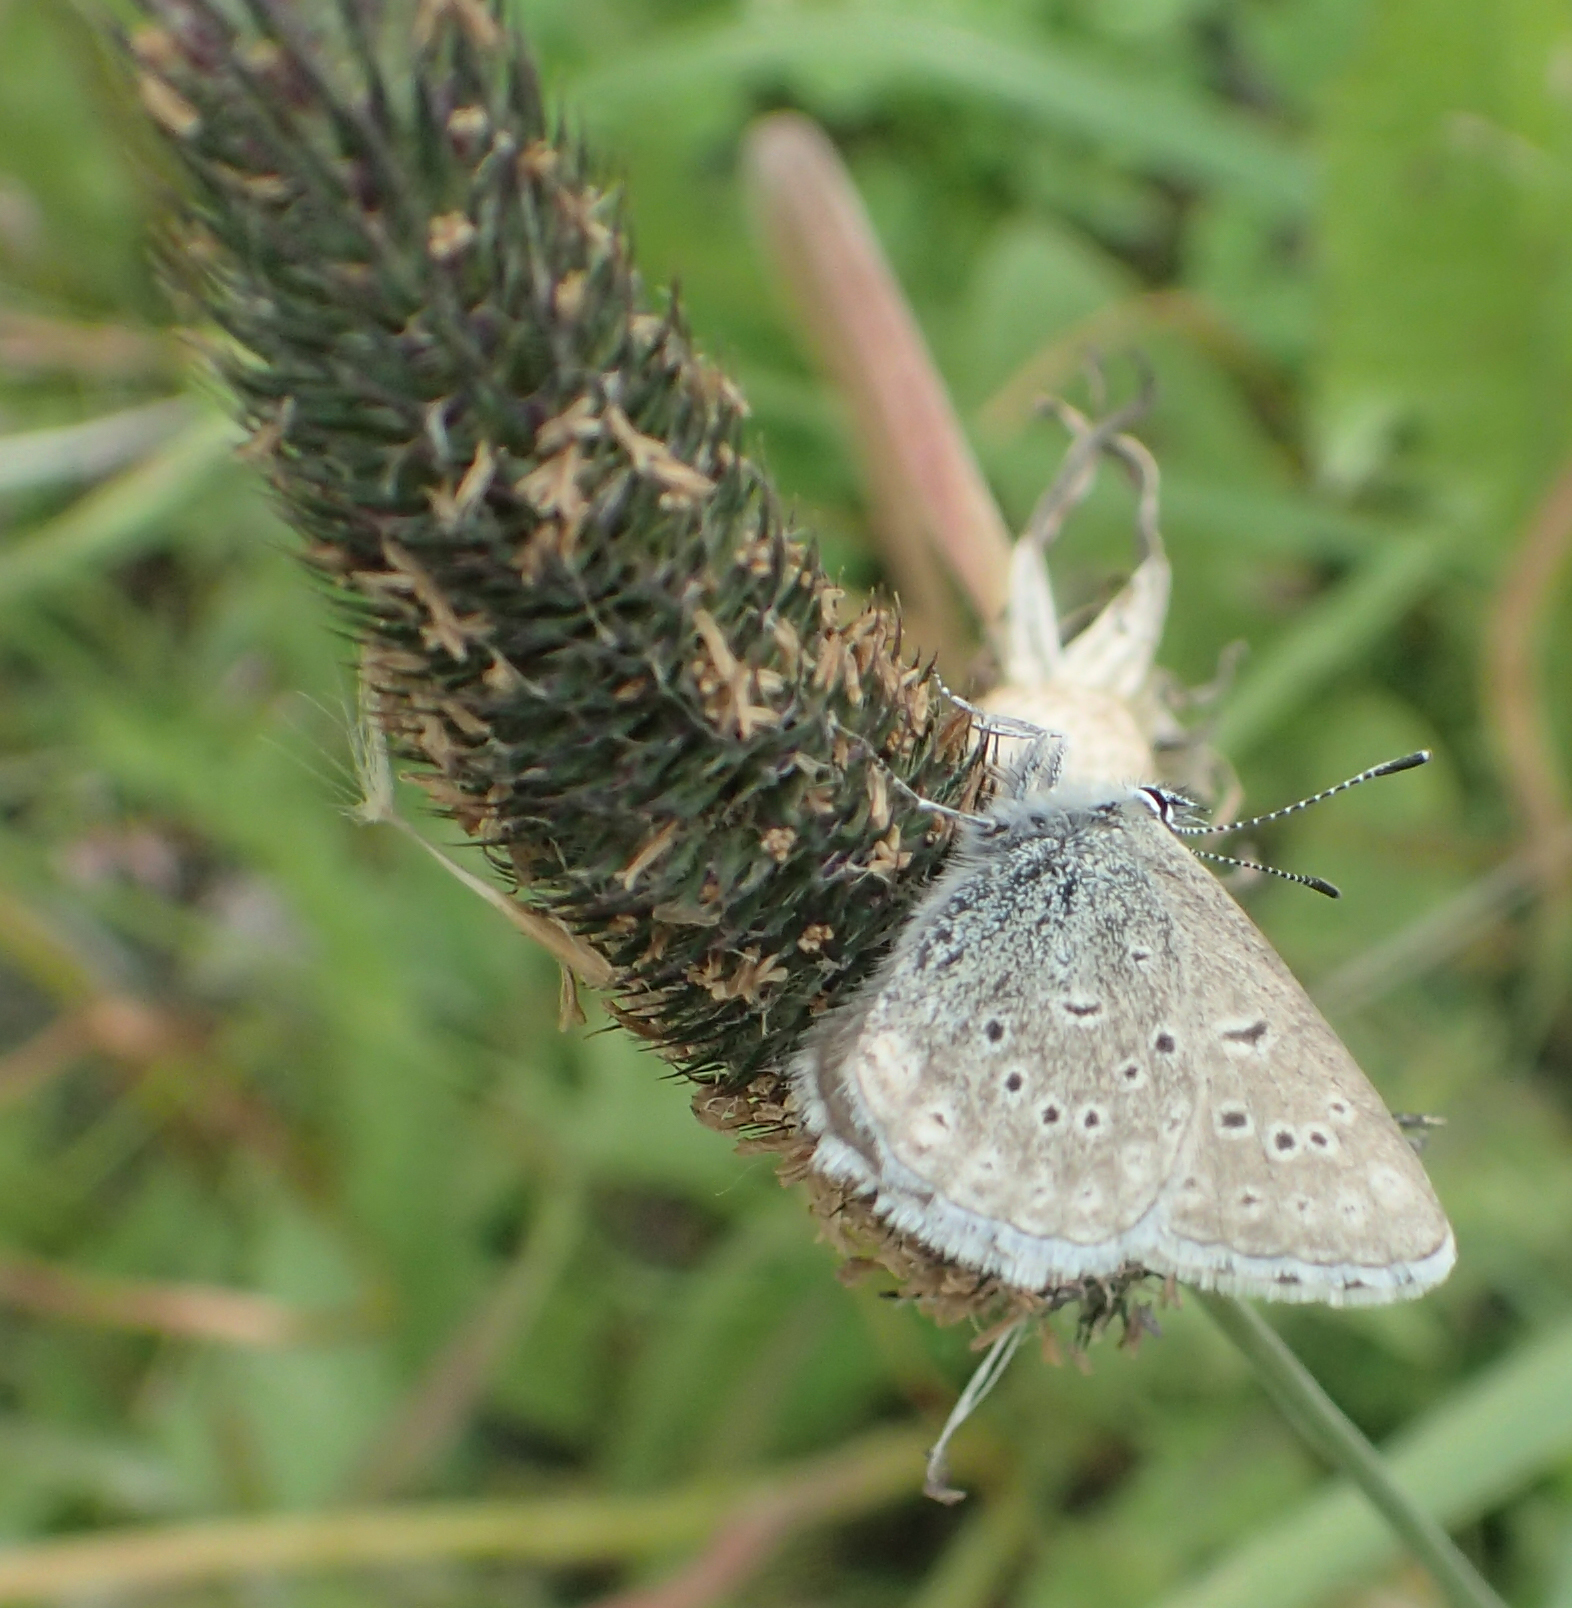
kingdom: Animalia
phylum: Arthropoda
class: Insecta
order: Lepidoptera
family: Lycaenidae
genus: Icaricia
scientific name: Icaricia saepiolus
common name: Greenish blue
